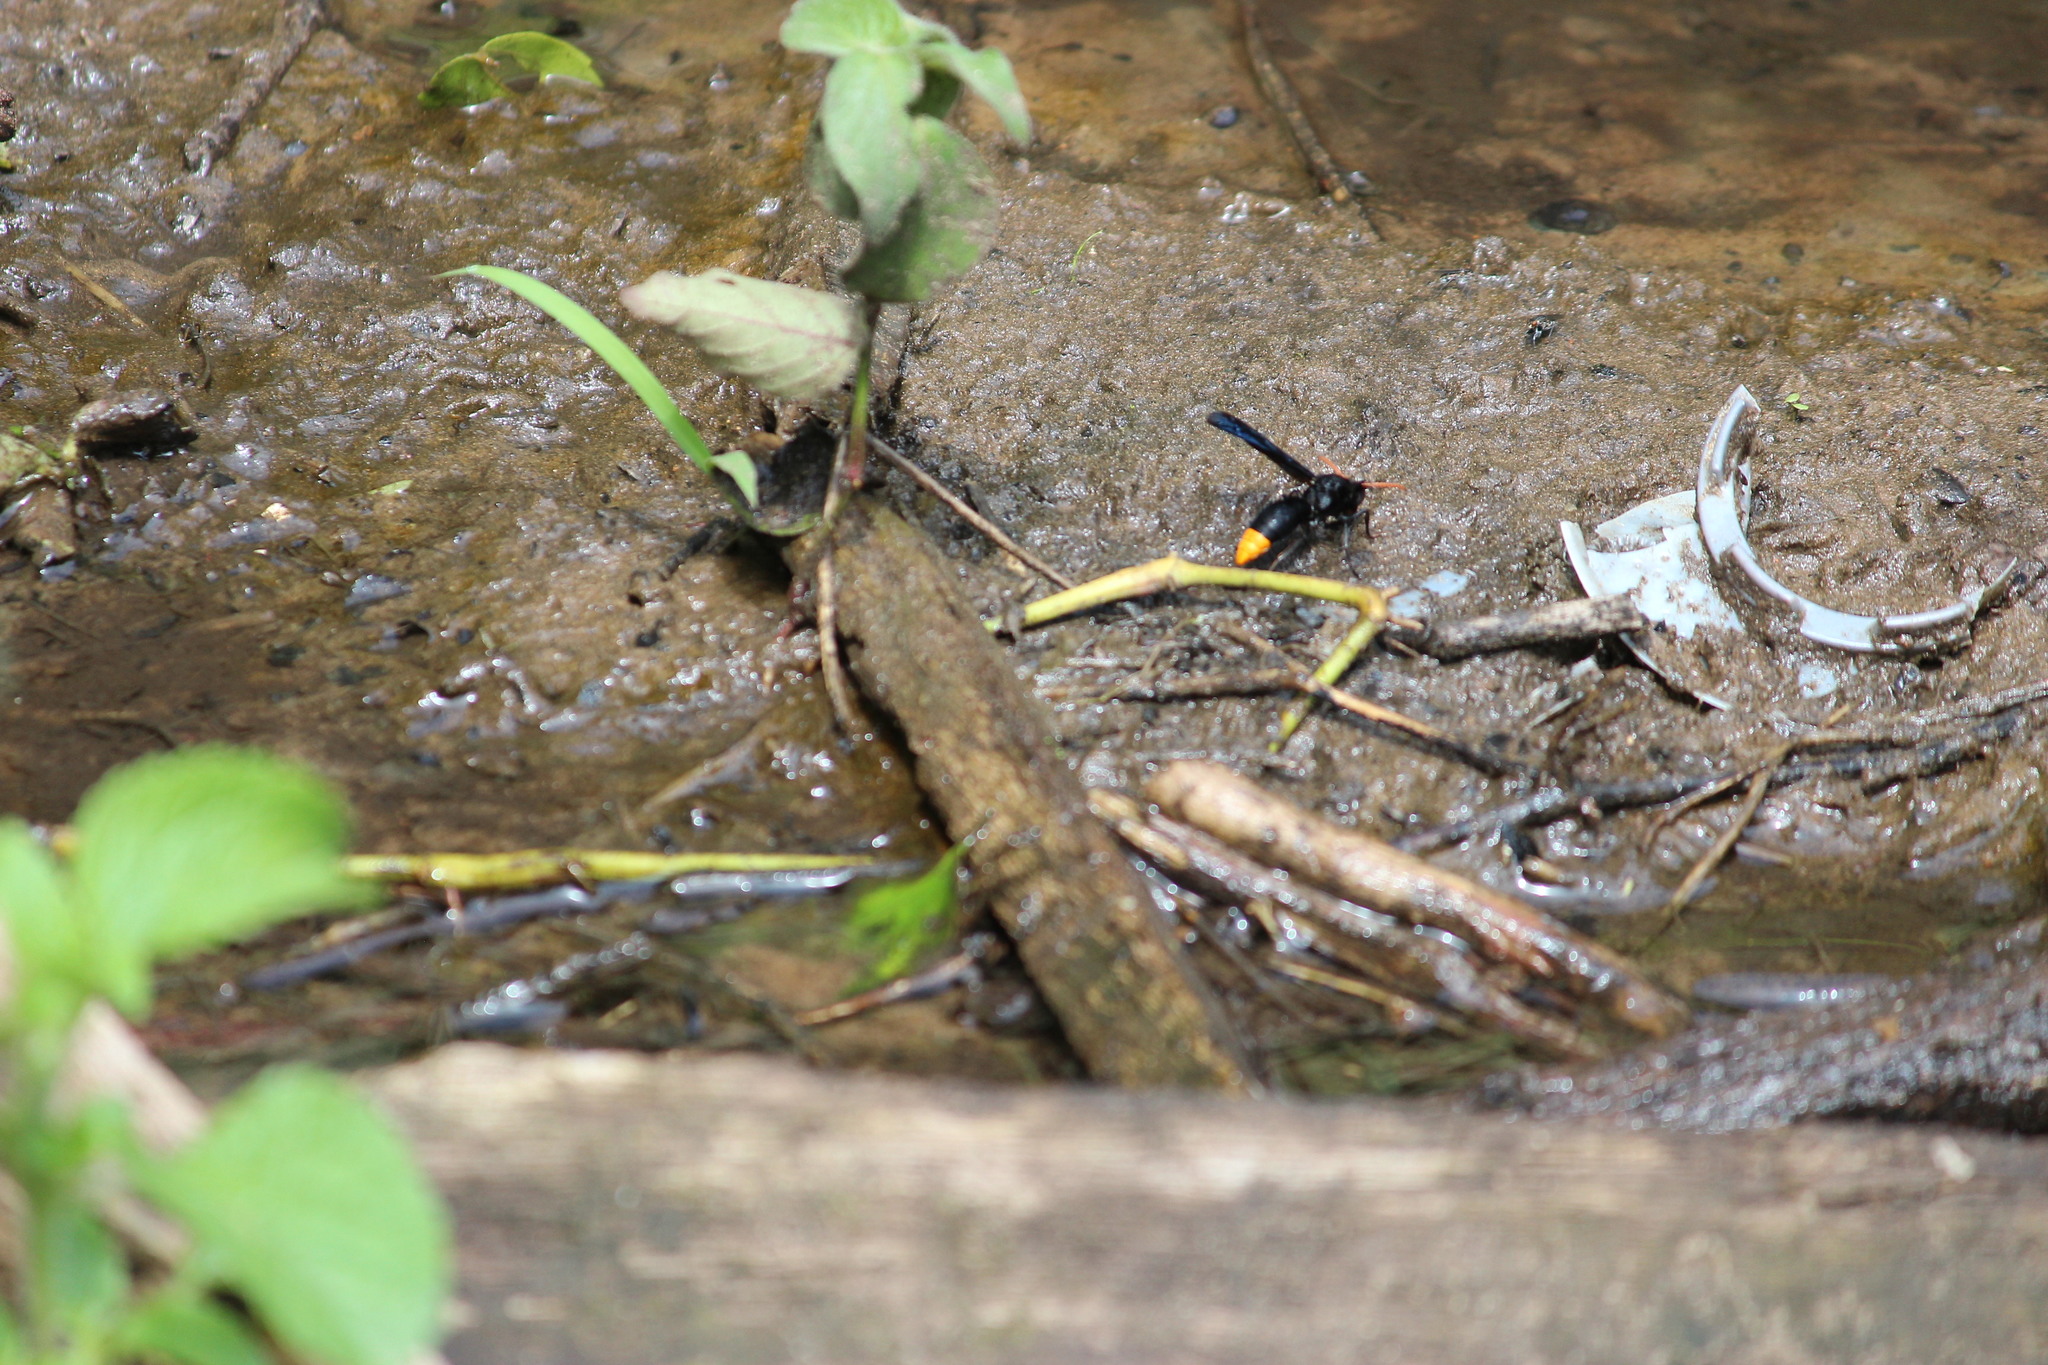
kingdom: Animalia
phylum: Arthropoda
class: Insecta
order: Hymenoptera
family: Vespidae
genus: Synagris
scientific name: Synagris abyssinica
